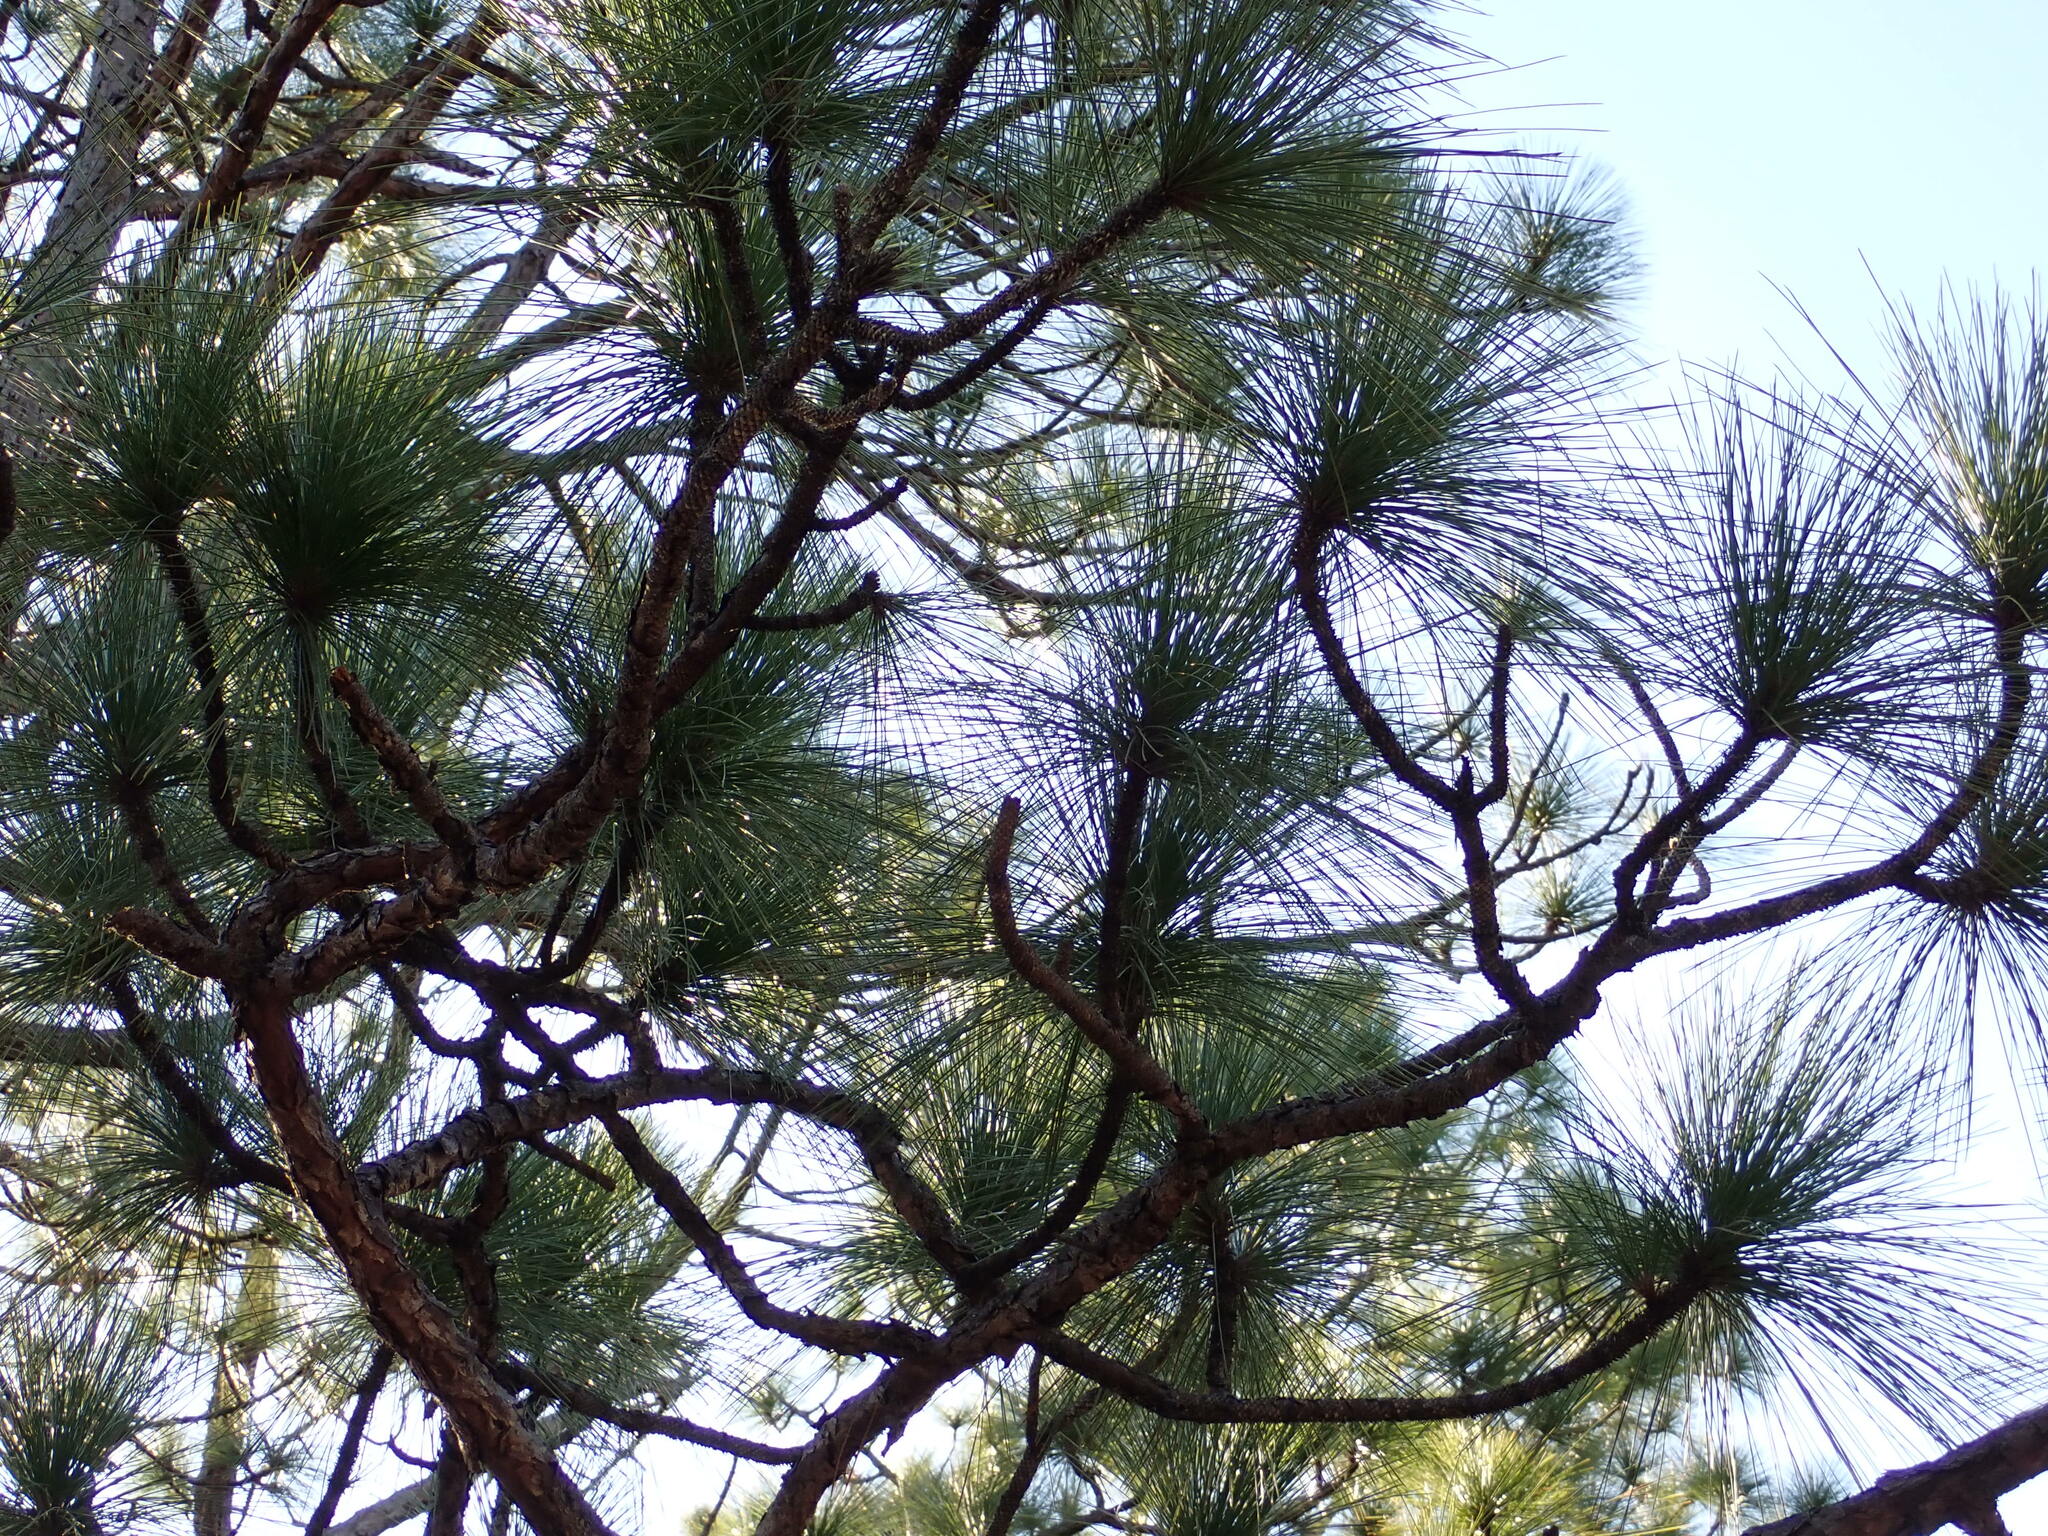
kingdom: Plantae
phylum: Tracheophyta
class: Pinopsida
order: Pinales
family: Pinaceae
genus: Pinus
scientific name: Pinus palustris
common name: Longleaf pine
